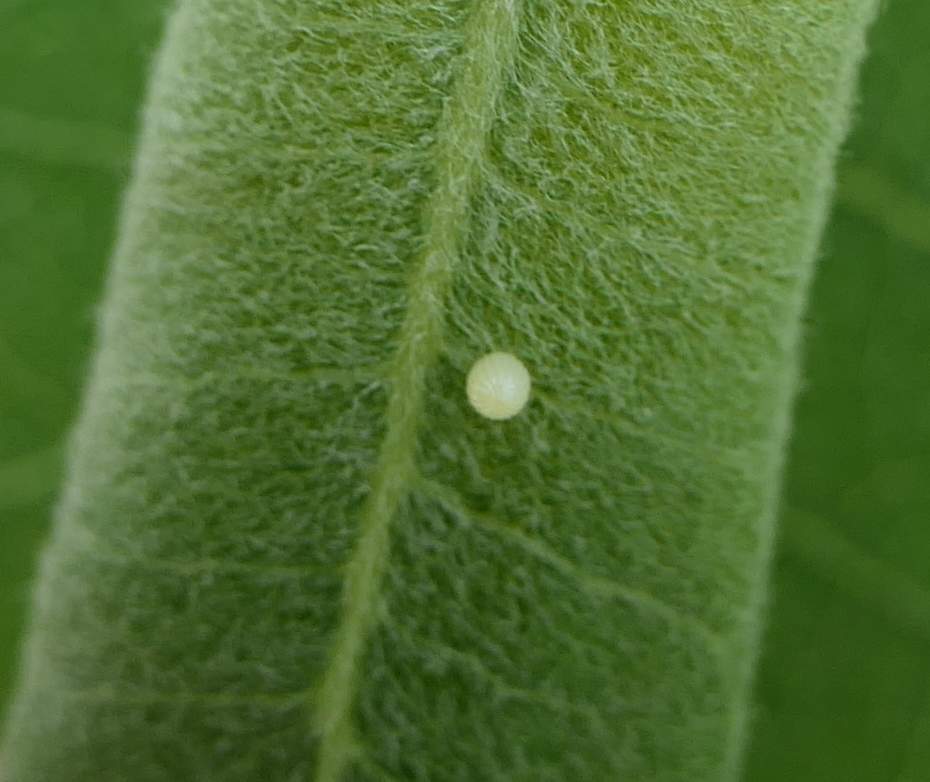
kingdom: Animalia
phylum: Arthropoda
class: Insecta
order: Lepidoptera
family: Nymphalidae
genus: Danaus
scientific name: Danaus plexippus
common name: Monarch
